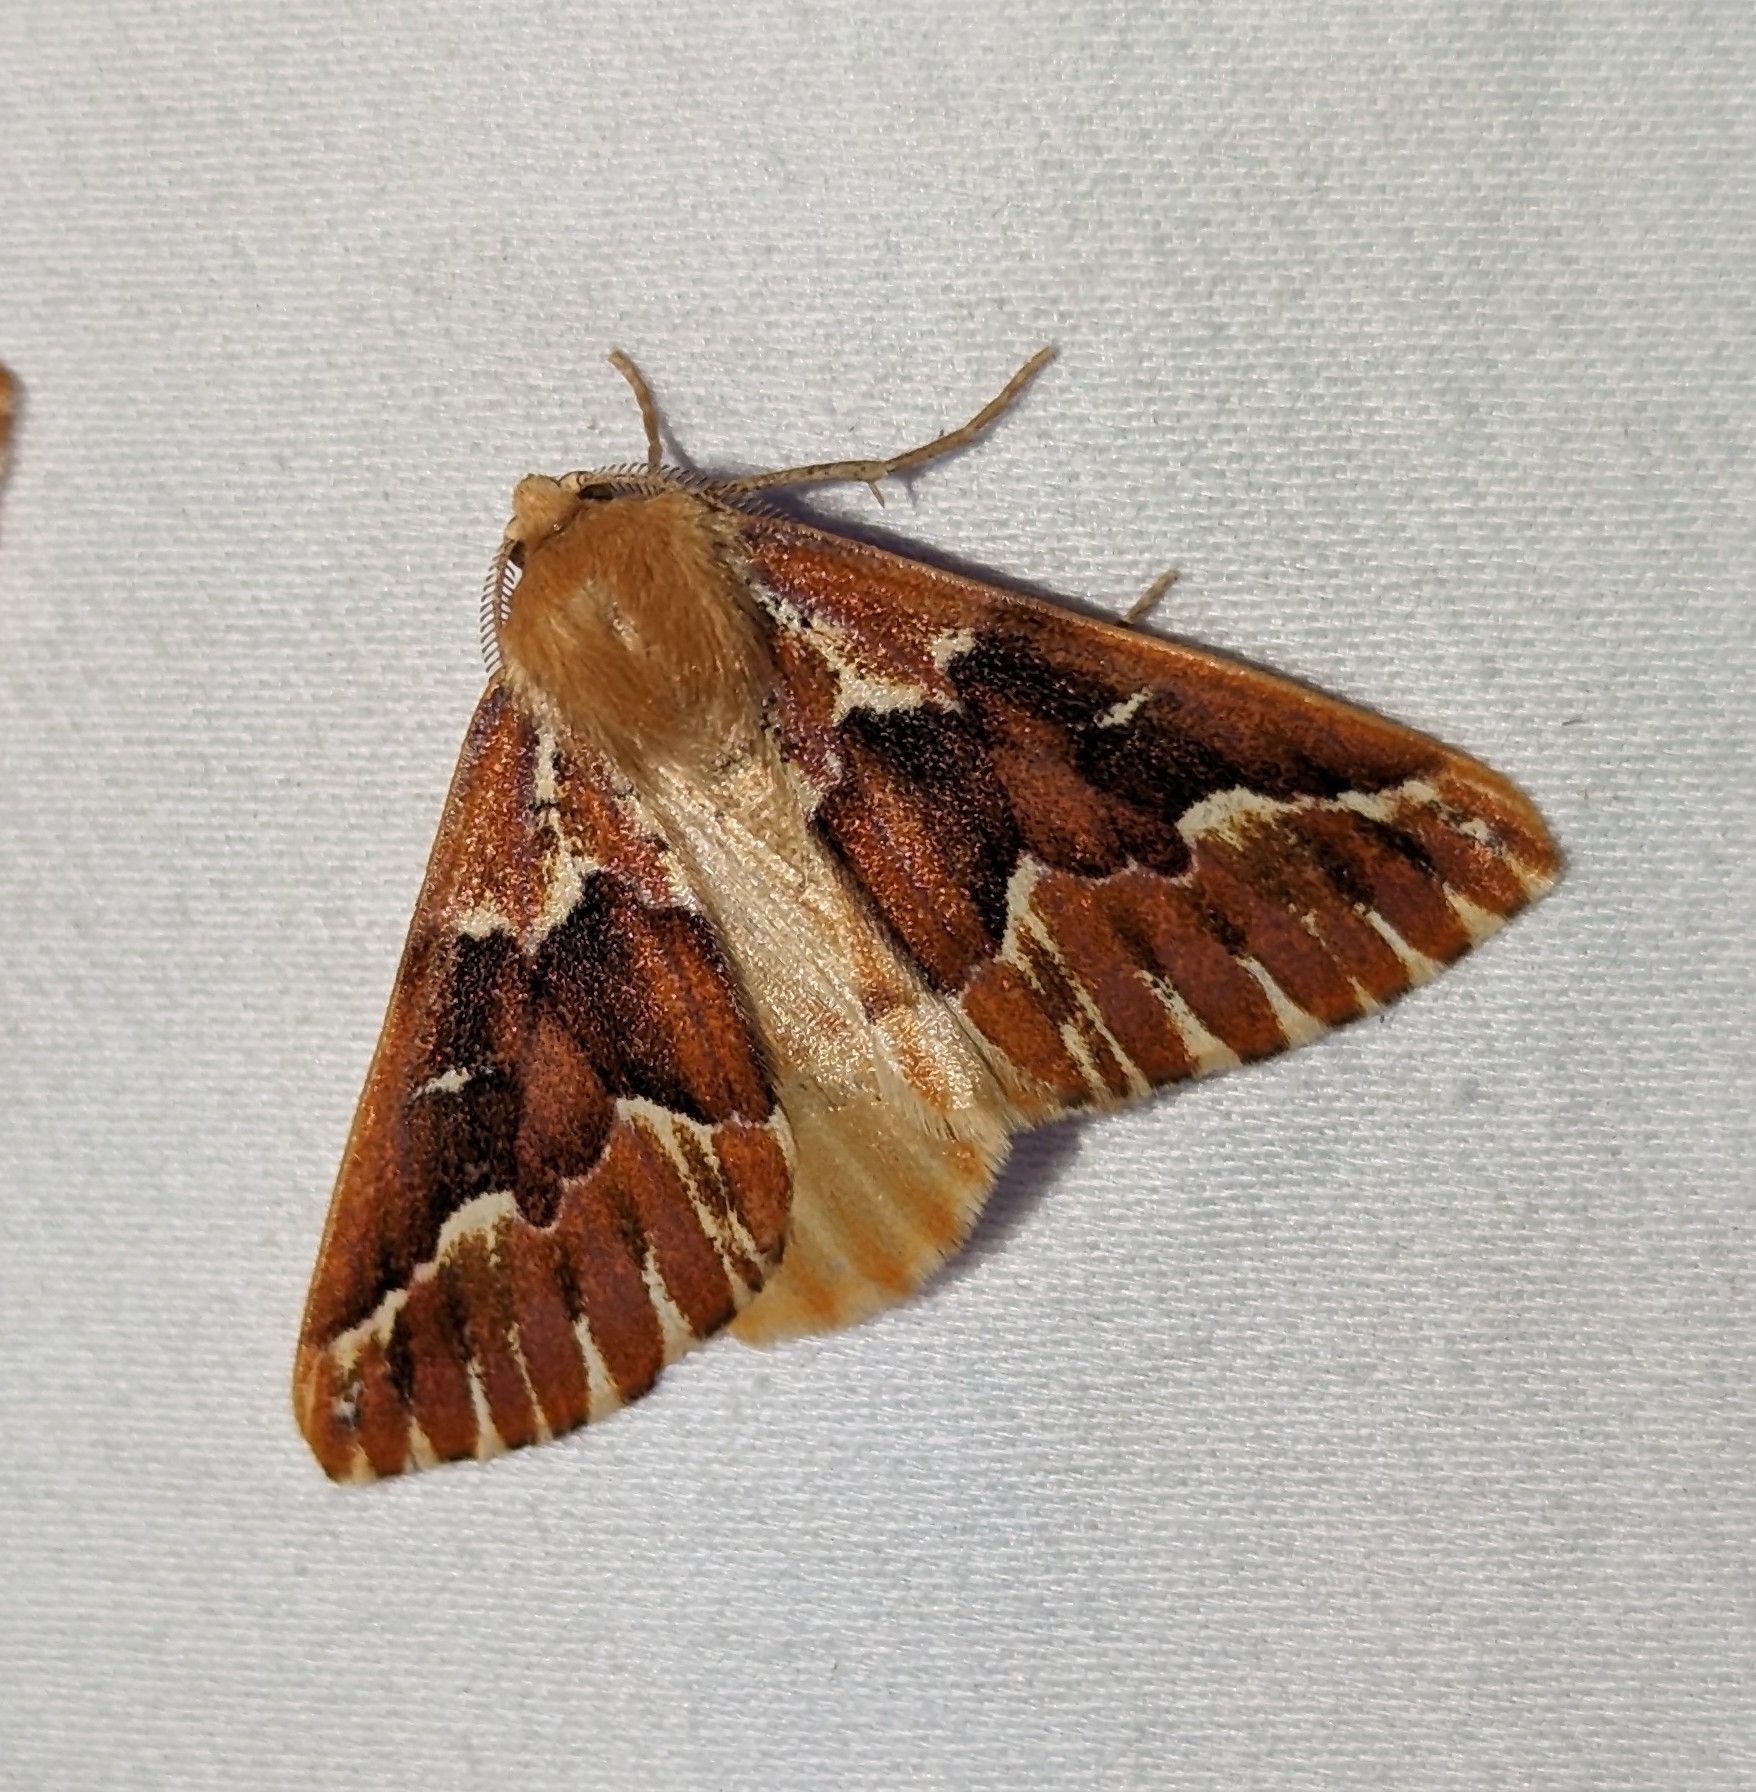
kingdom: Animalia
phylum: Arthropoda
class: Insecta
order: Lepidoptera
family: Geometridae
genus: Caripeta
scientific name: Caripeta aequaliaria
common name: Red girdle moth
